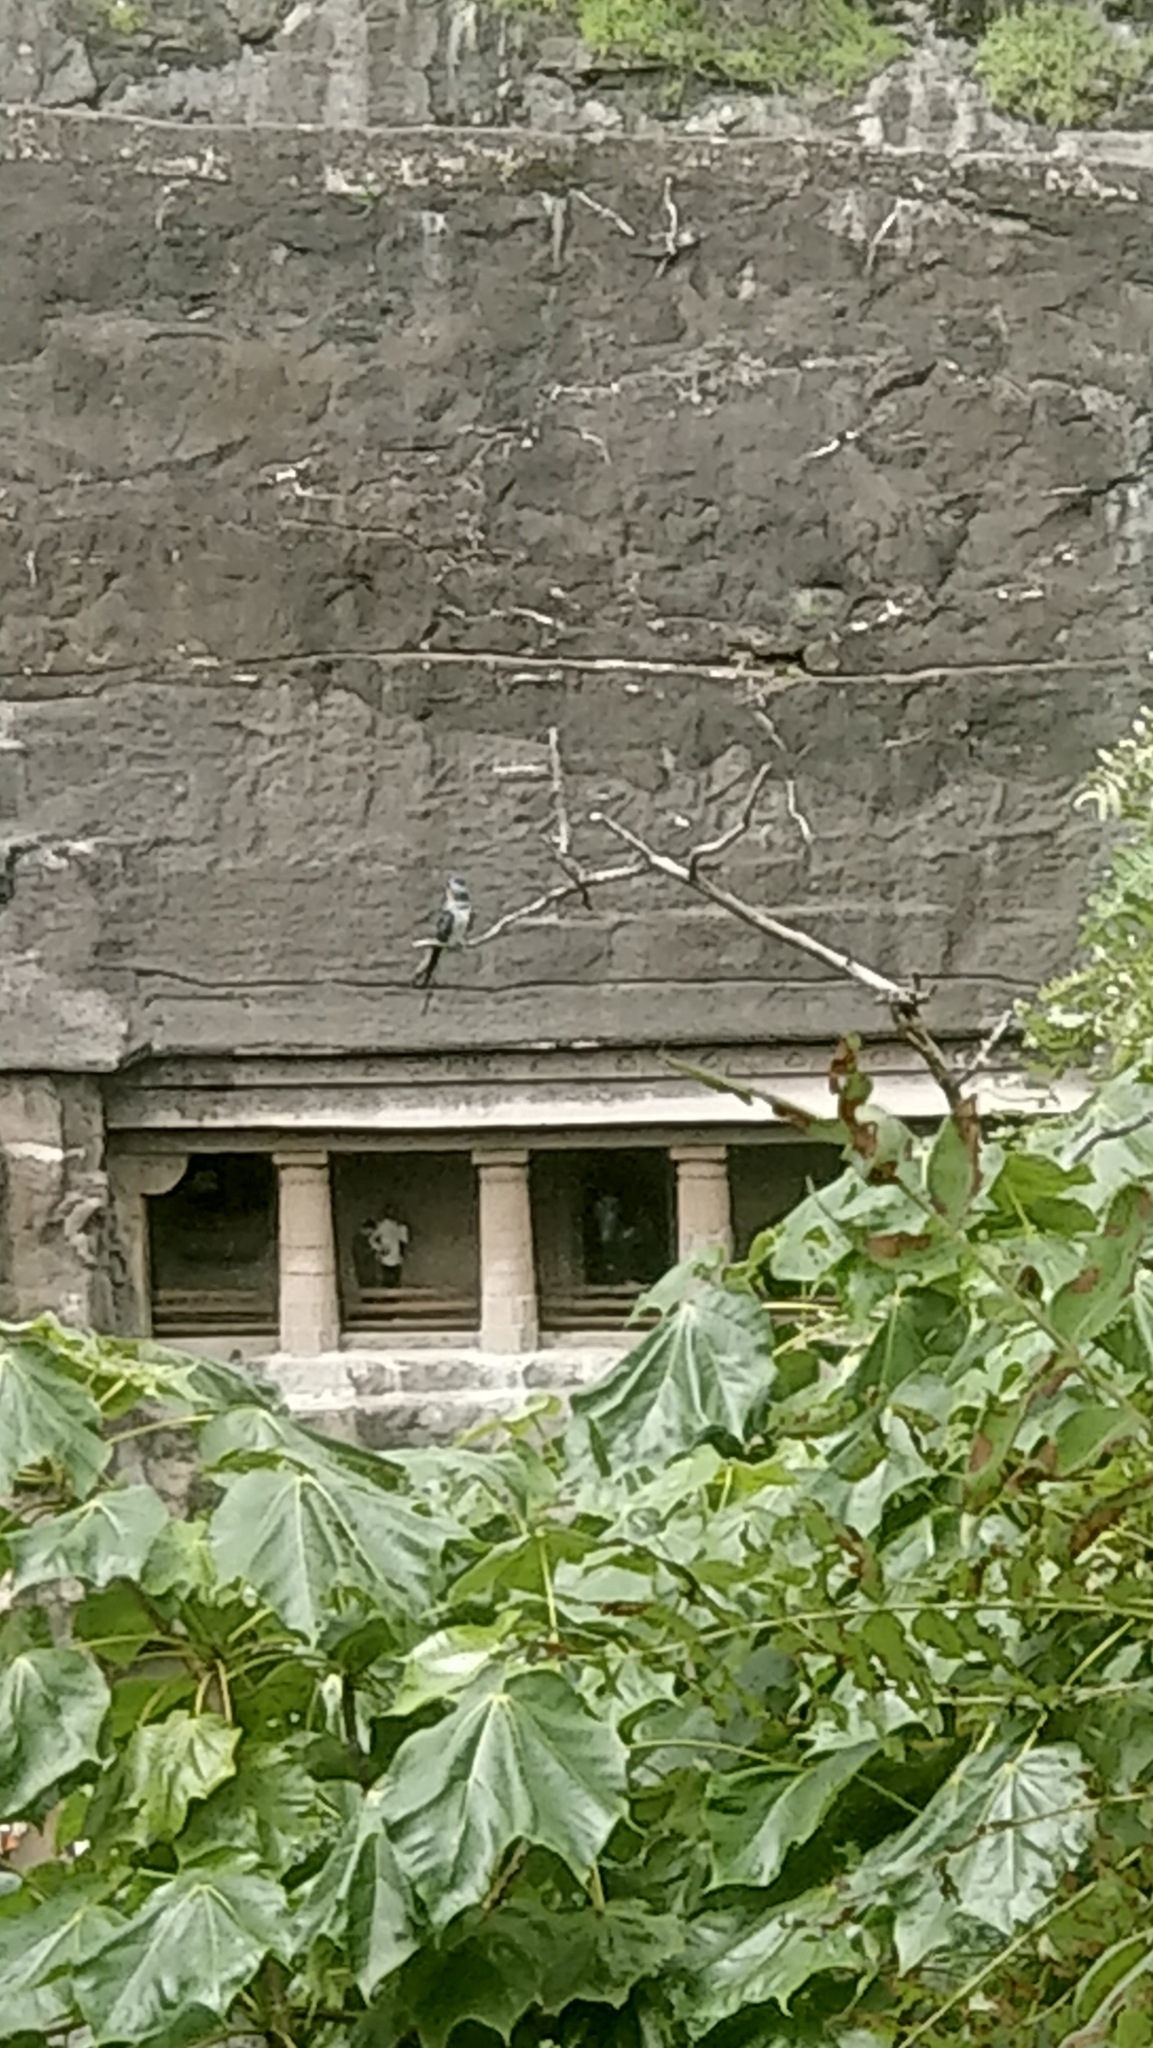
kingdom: Animalia
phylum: Chordata
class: Aves
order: Apodiformes
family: Hemiprocnidae
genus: Hemiprocne
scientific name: Hemiprocne coronata
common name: Crested treeswift
